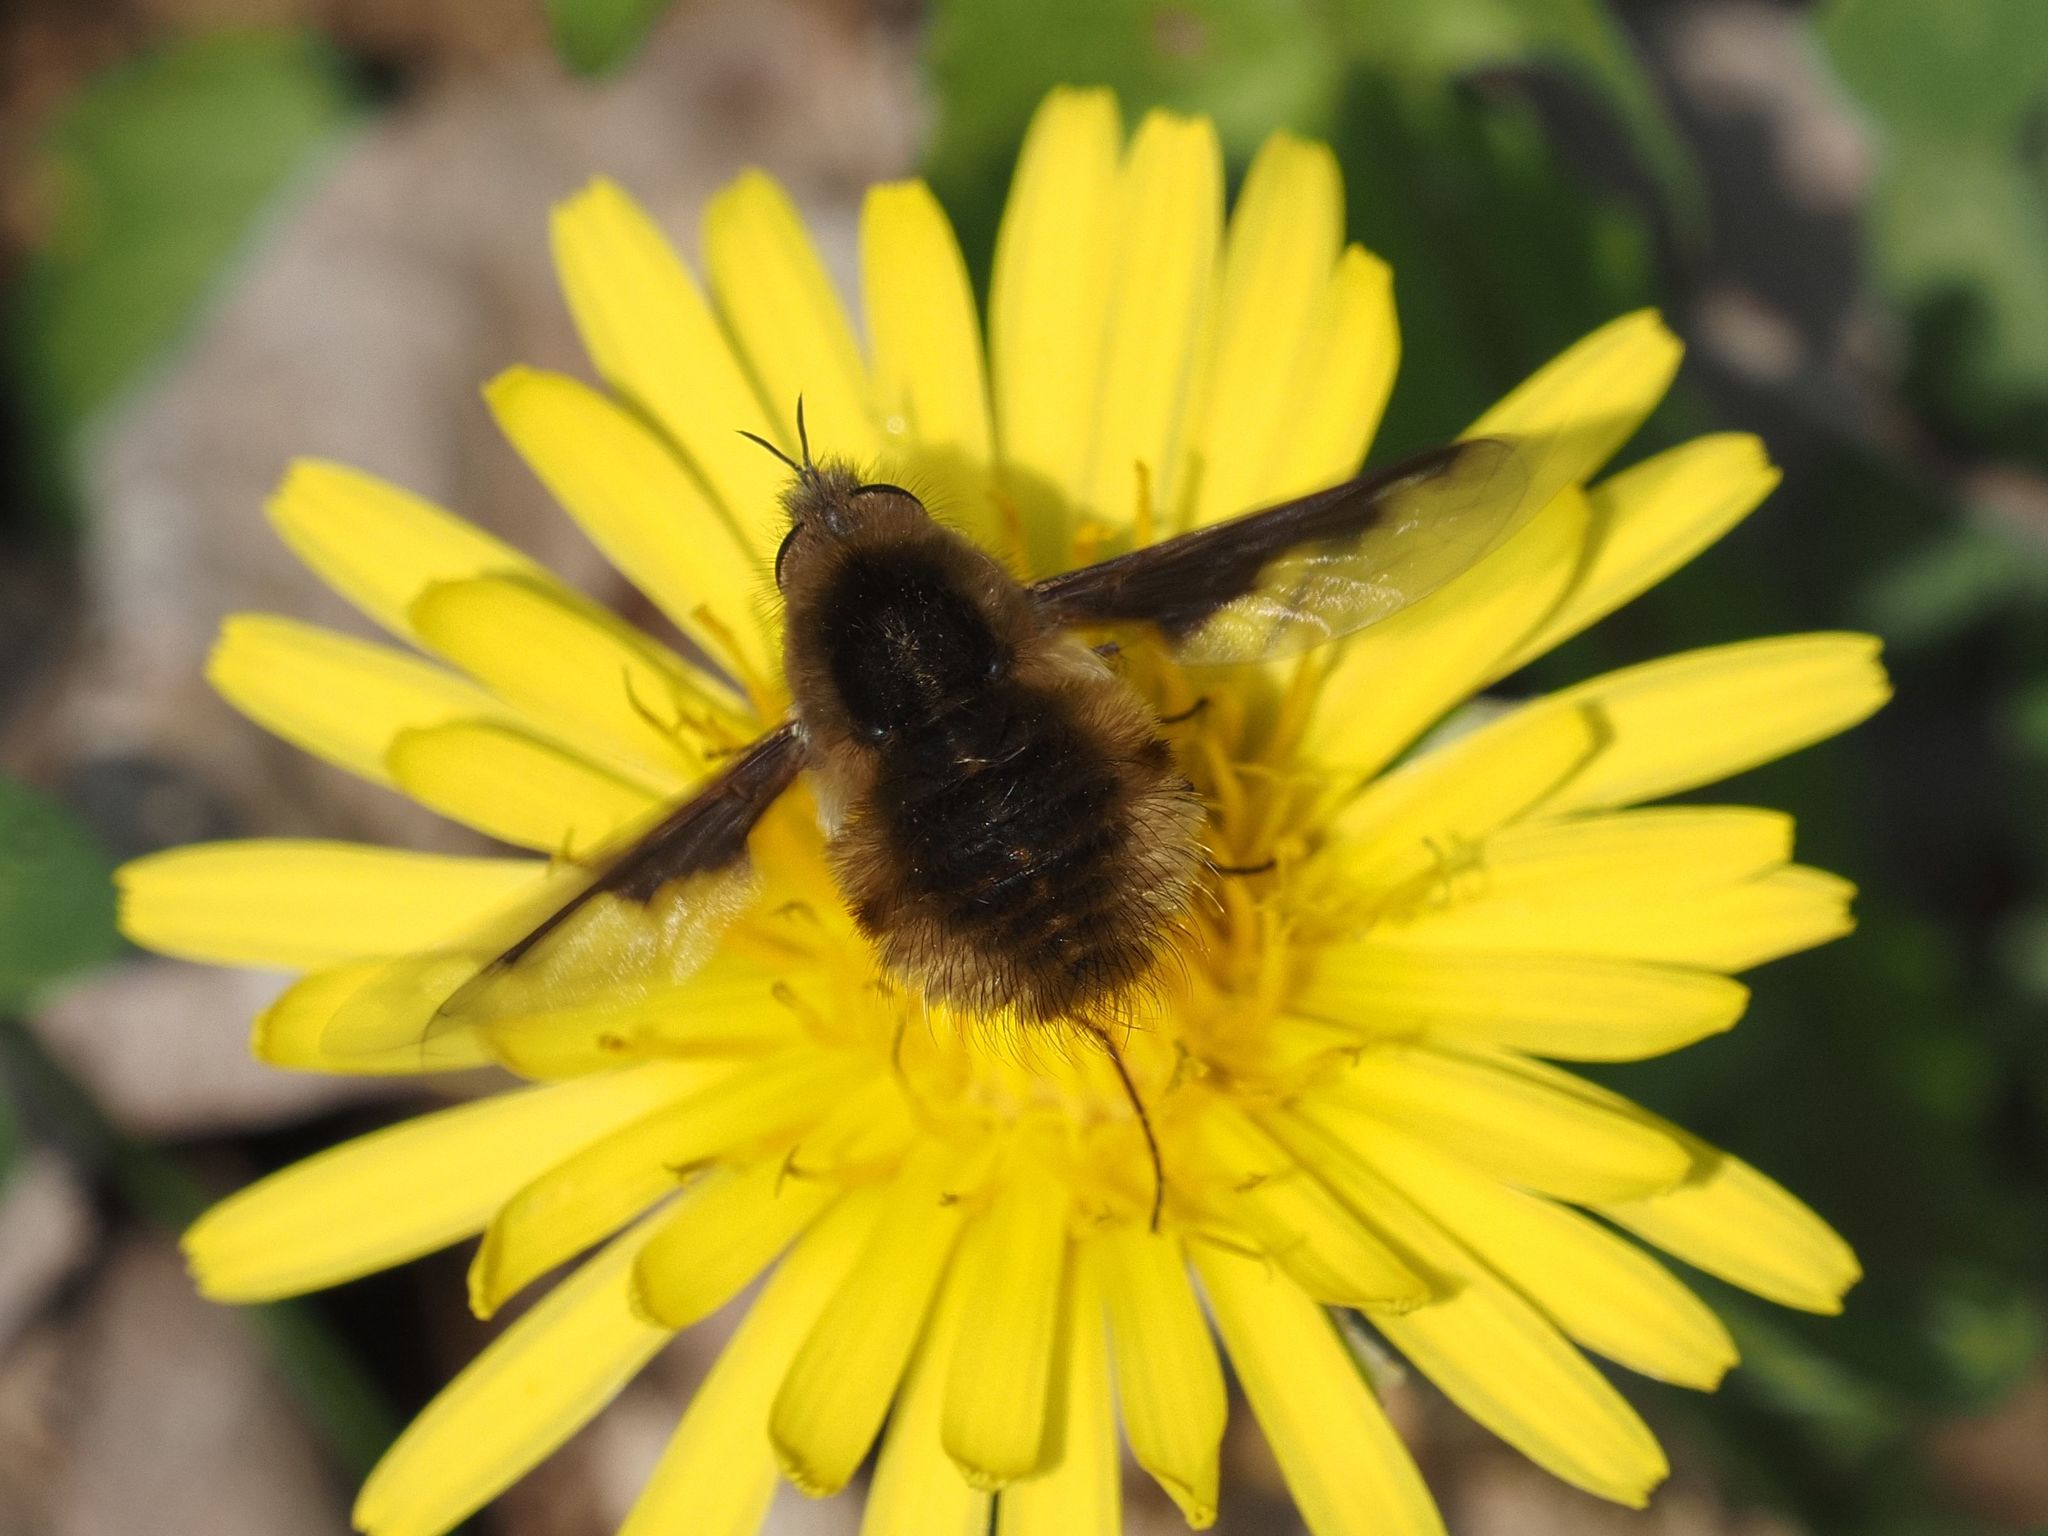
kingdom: Animalia
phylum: Arthropoda
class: Insecta
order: Diptera
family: Bombyliidae
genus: Bombylius
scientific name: Bombylius major
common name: Bee fly
